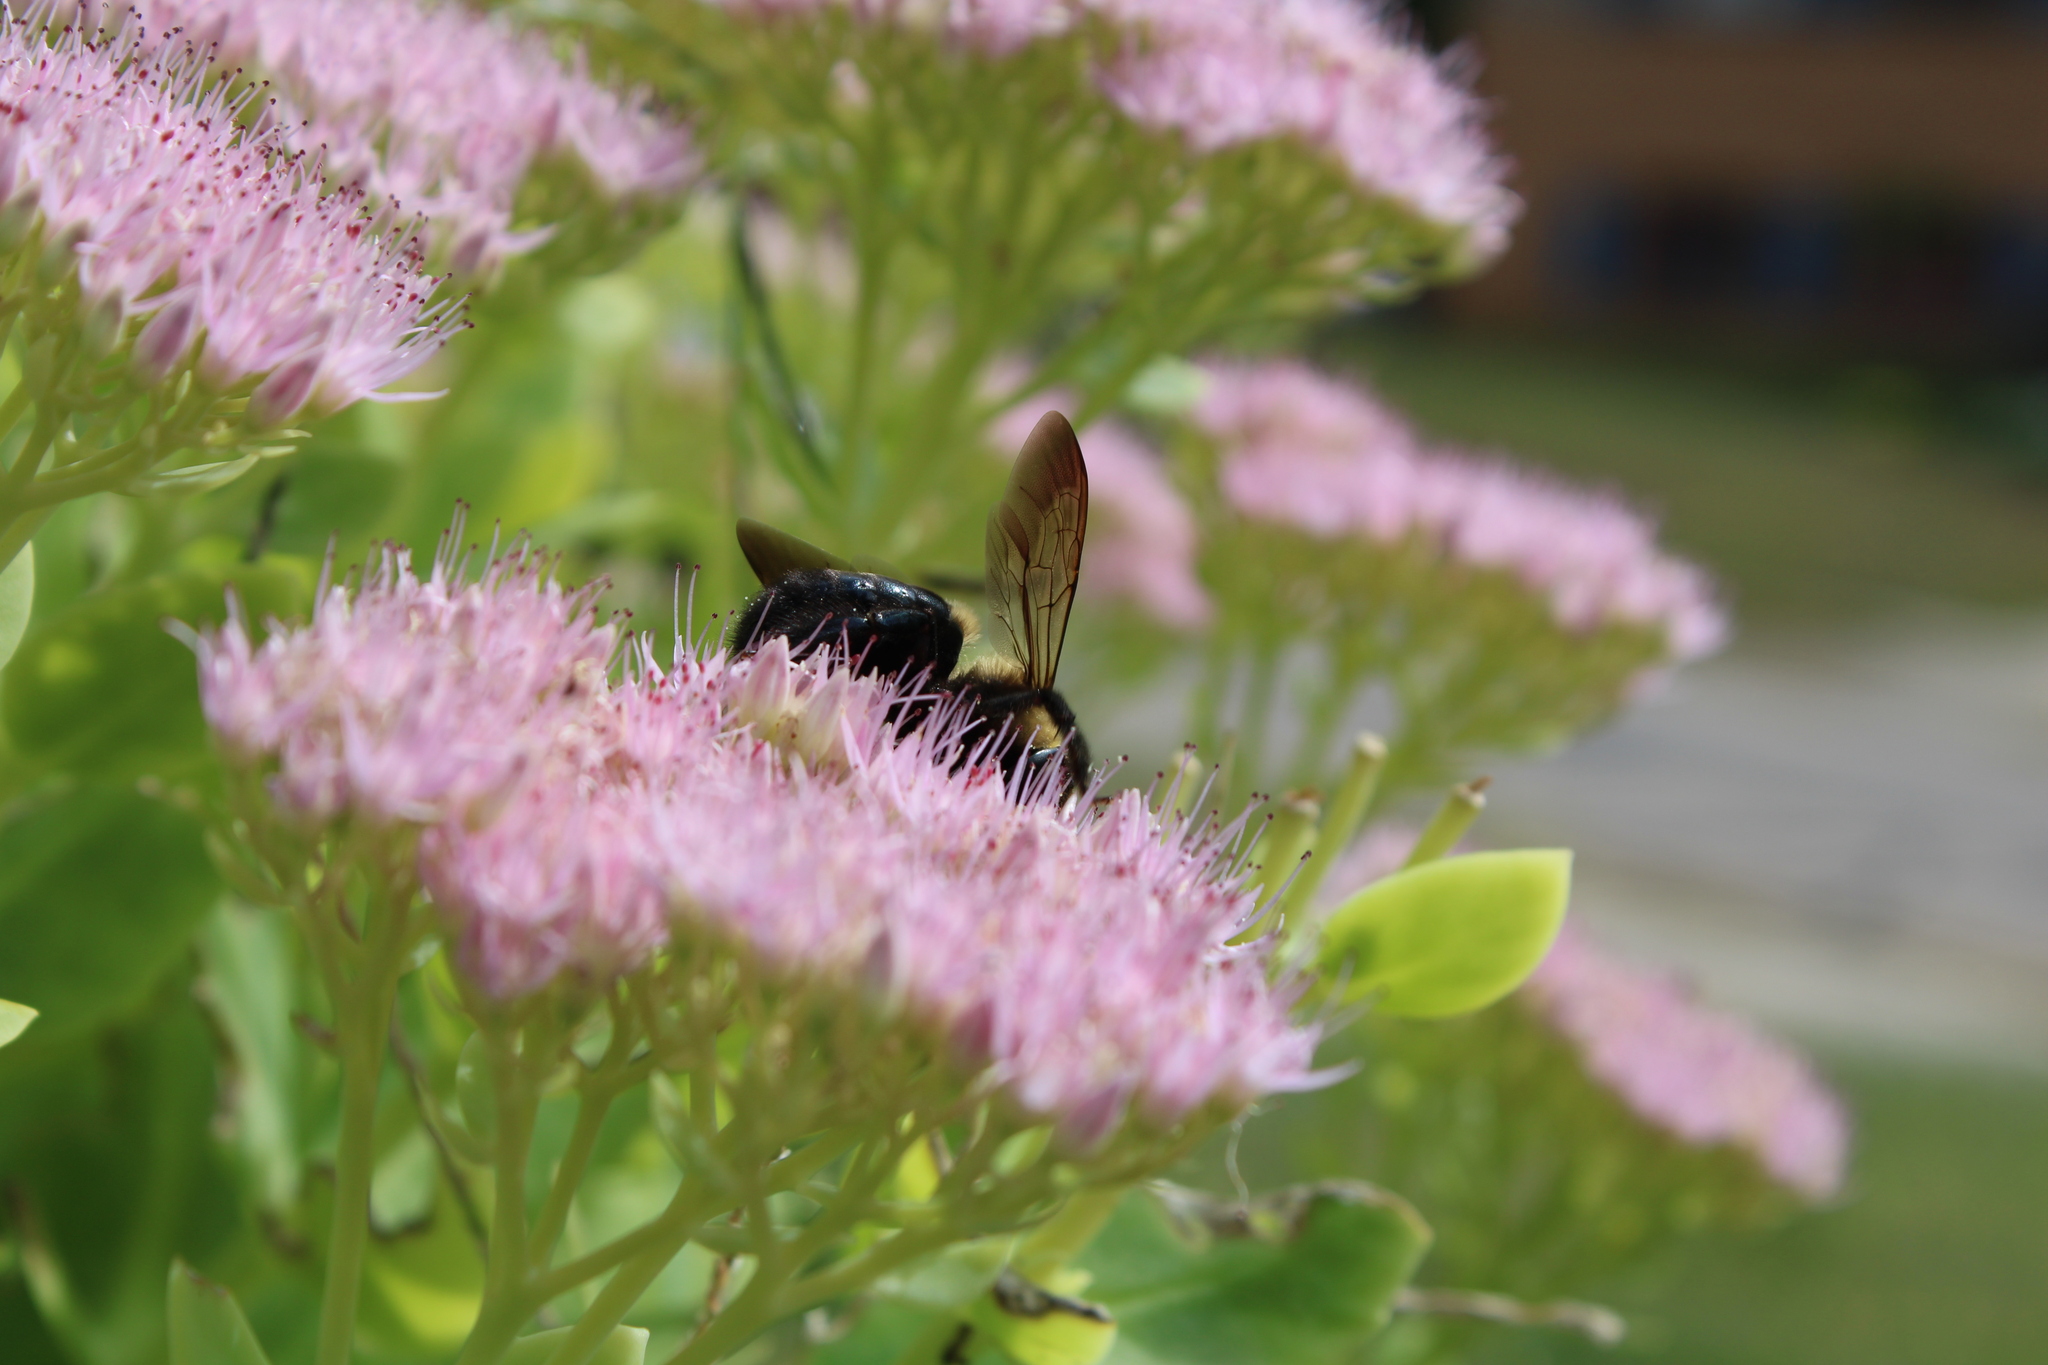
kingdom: Animalia
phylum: Arthropoda
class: Insecta
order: Hymenoptera
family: Apidae
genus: Xylocopa
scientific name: Xylocopa virginica
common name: Carpenter bee
